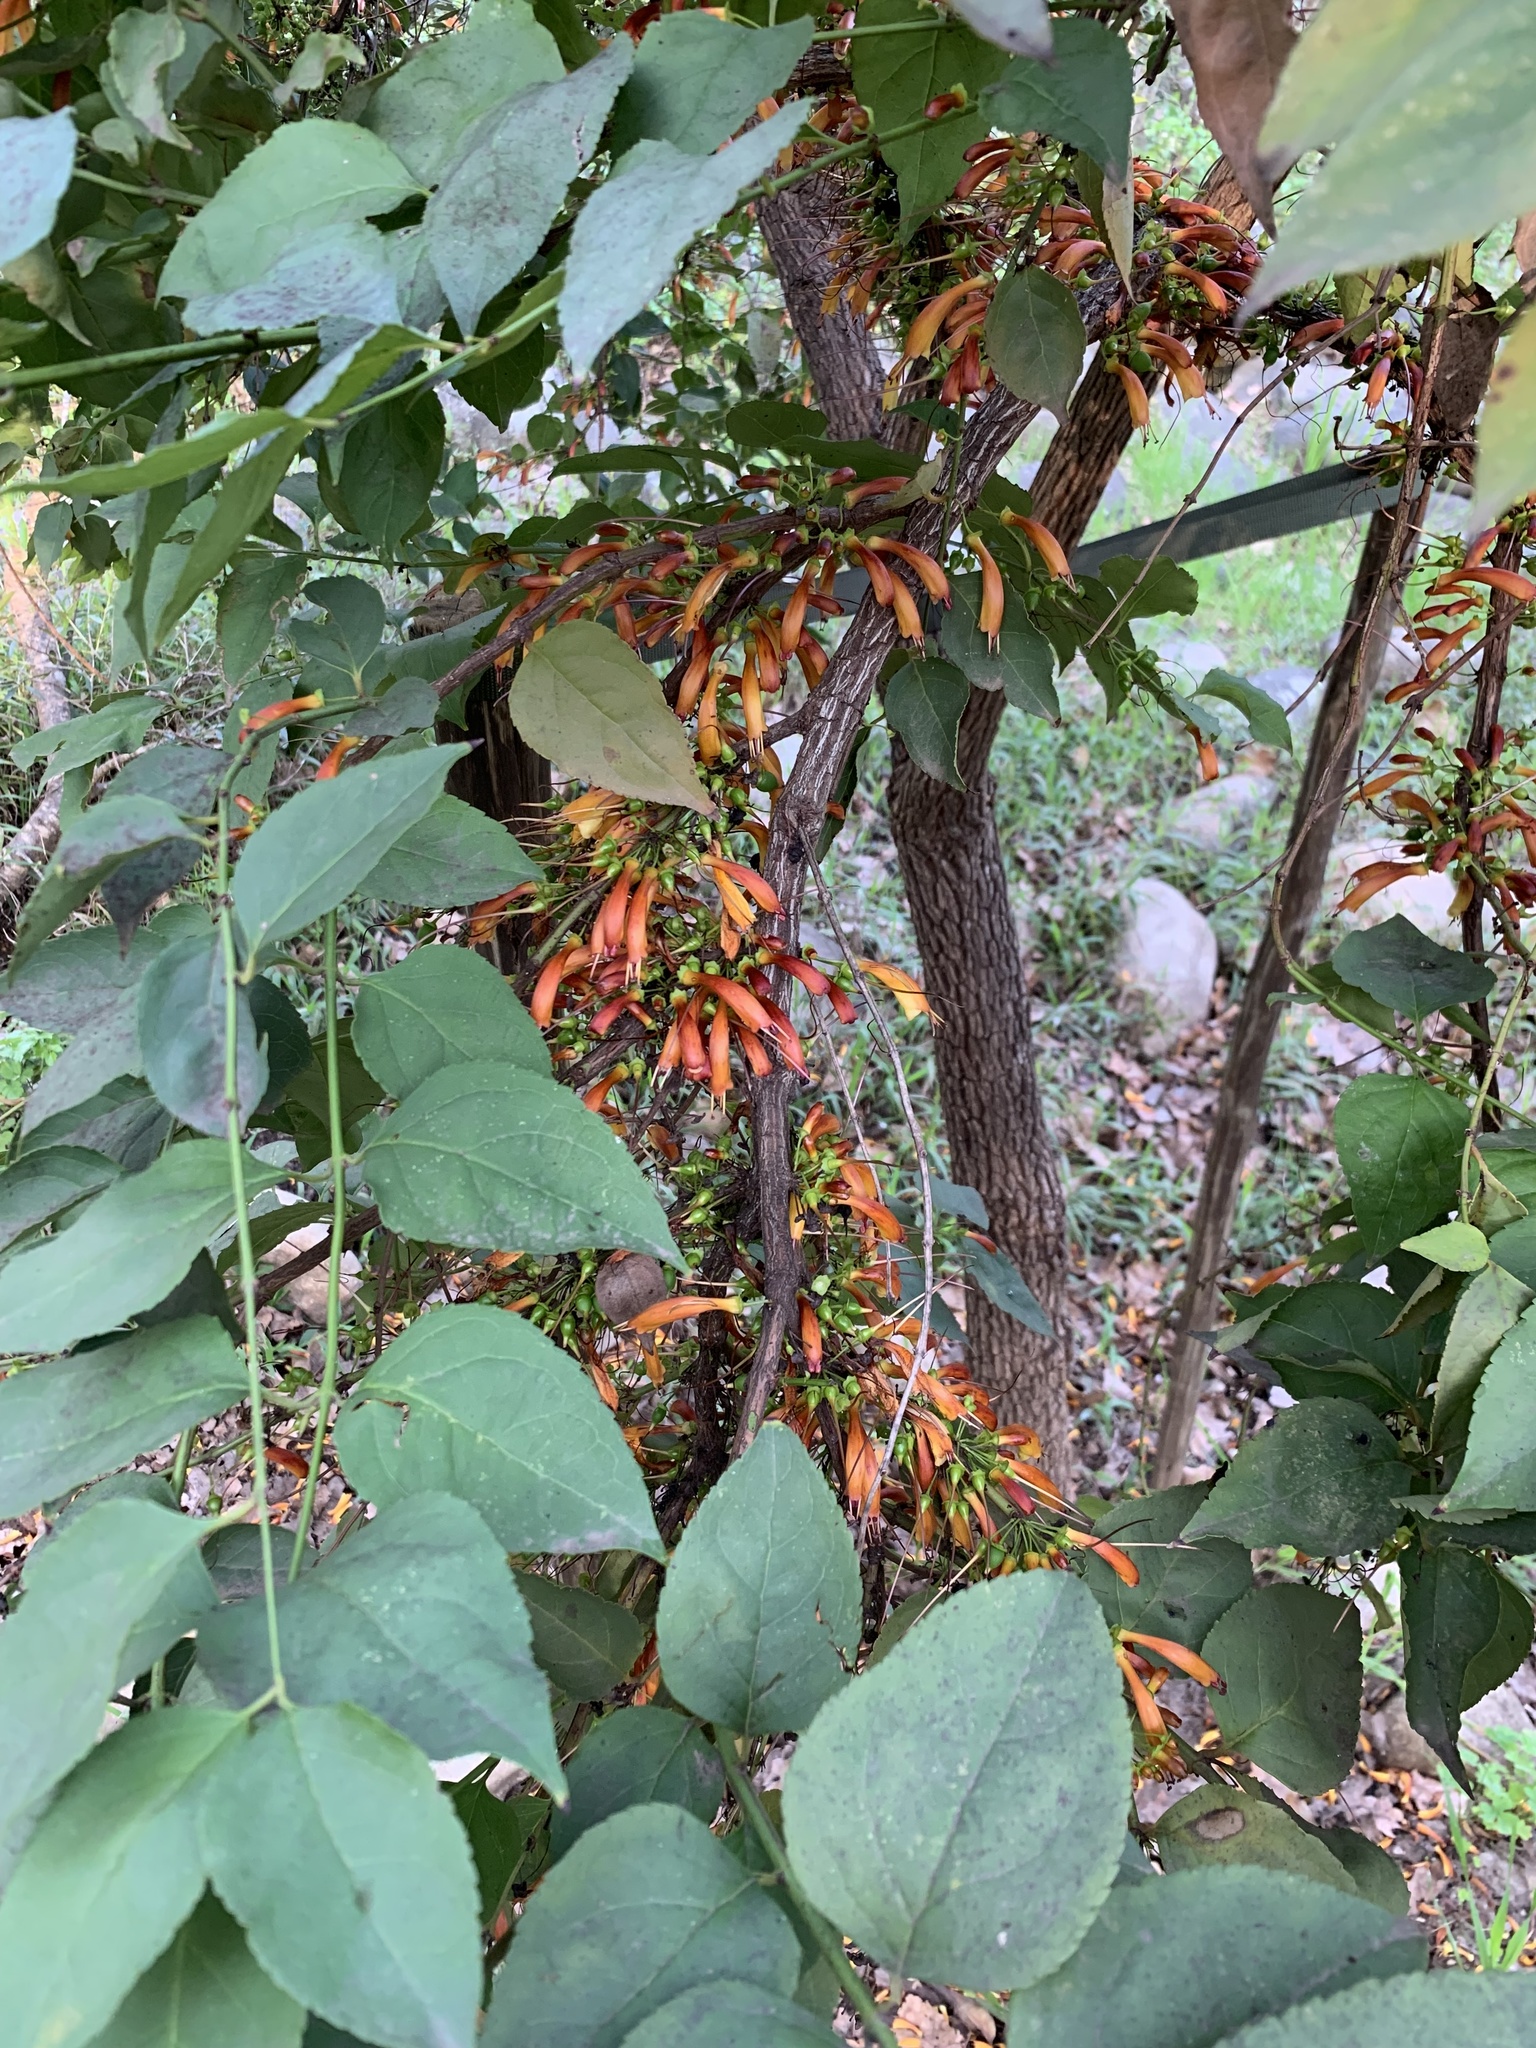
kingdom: Plantae
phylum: Tracheophyta
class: Magnoliopsida
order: Lamiales
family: Stilbaceae
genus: Halleria
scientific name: Halleria lucida
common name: Tree fuschia
